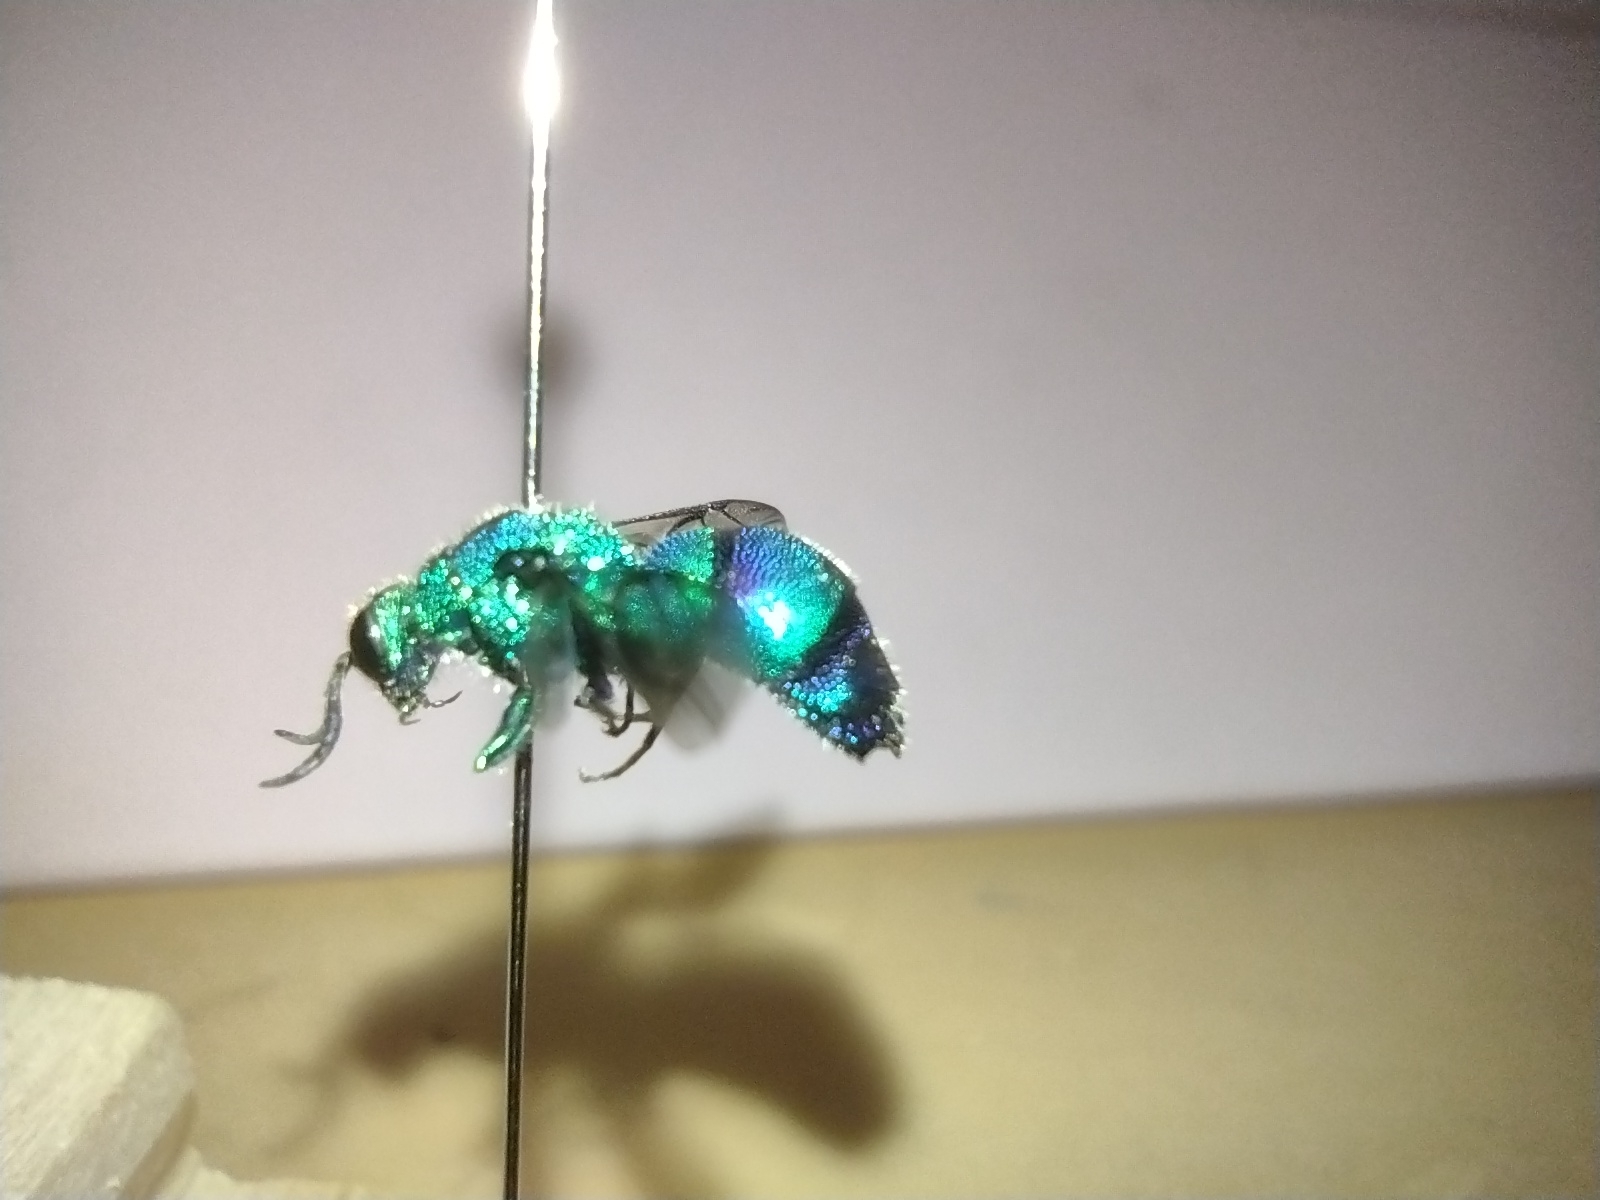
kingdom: Animalia
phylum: Arthropoda
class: Insecta
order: Hymenoptera
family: Chrysididae
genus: Chrysis
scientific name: Chrysis conica
